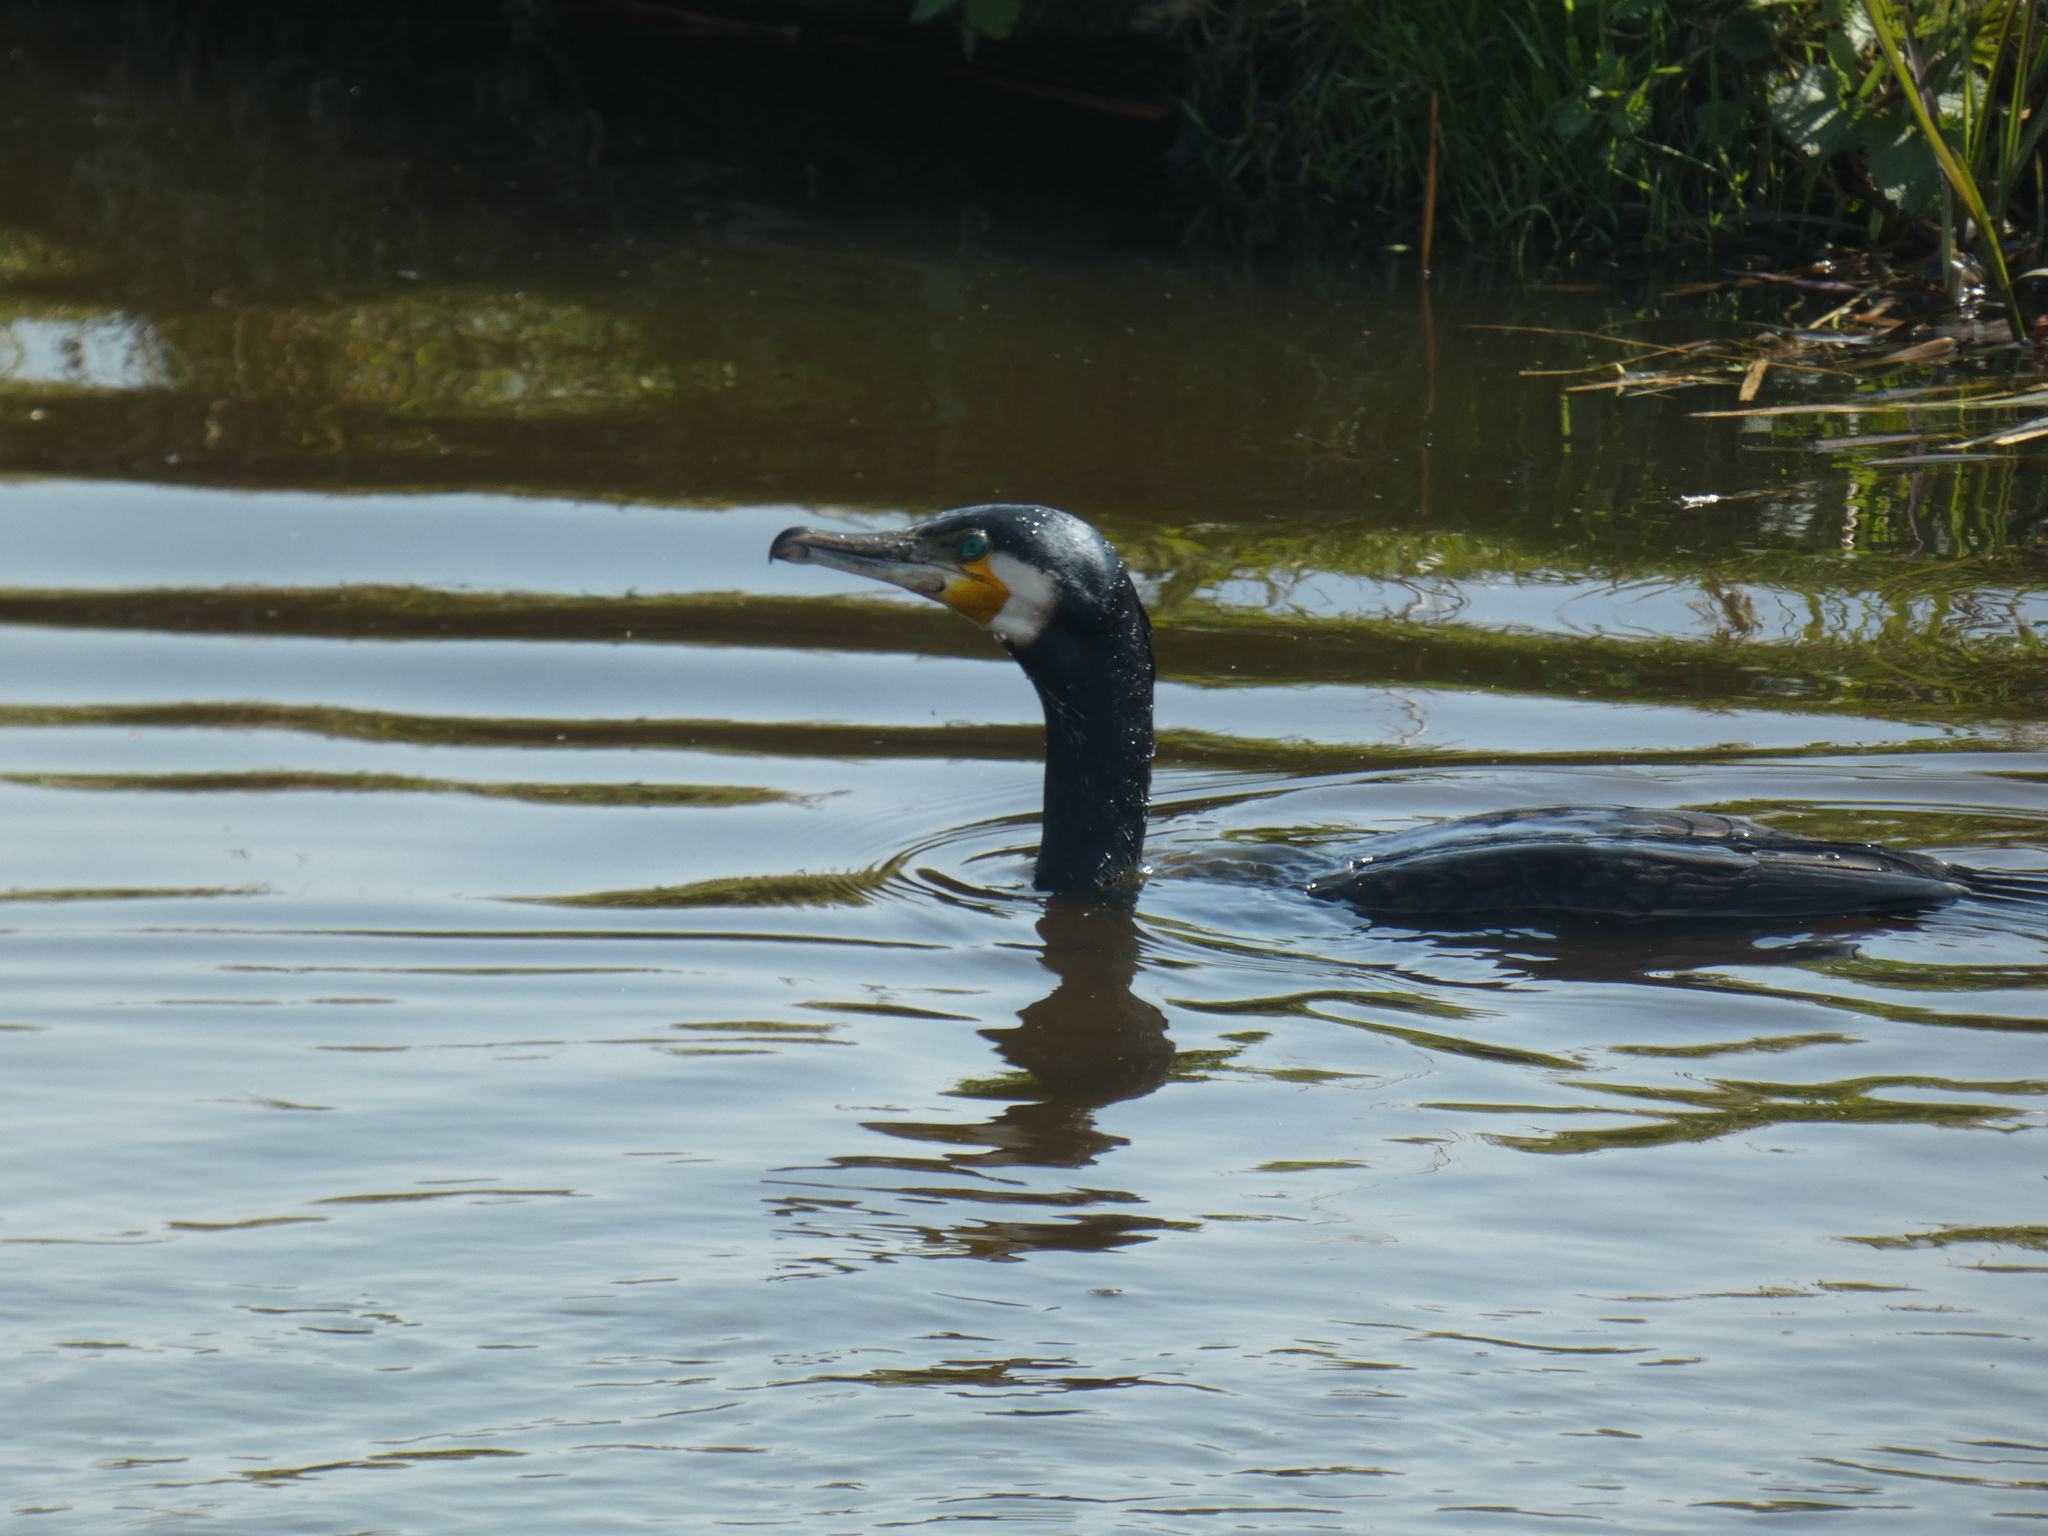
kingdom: Animalia
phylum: Chordata
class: Aves
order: Suliformes
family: Phalacrocoracidae
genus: Phalacrocorax
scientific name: Phalacrocorax carbo
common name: Great cormorant
